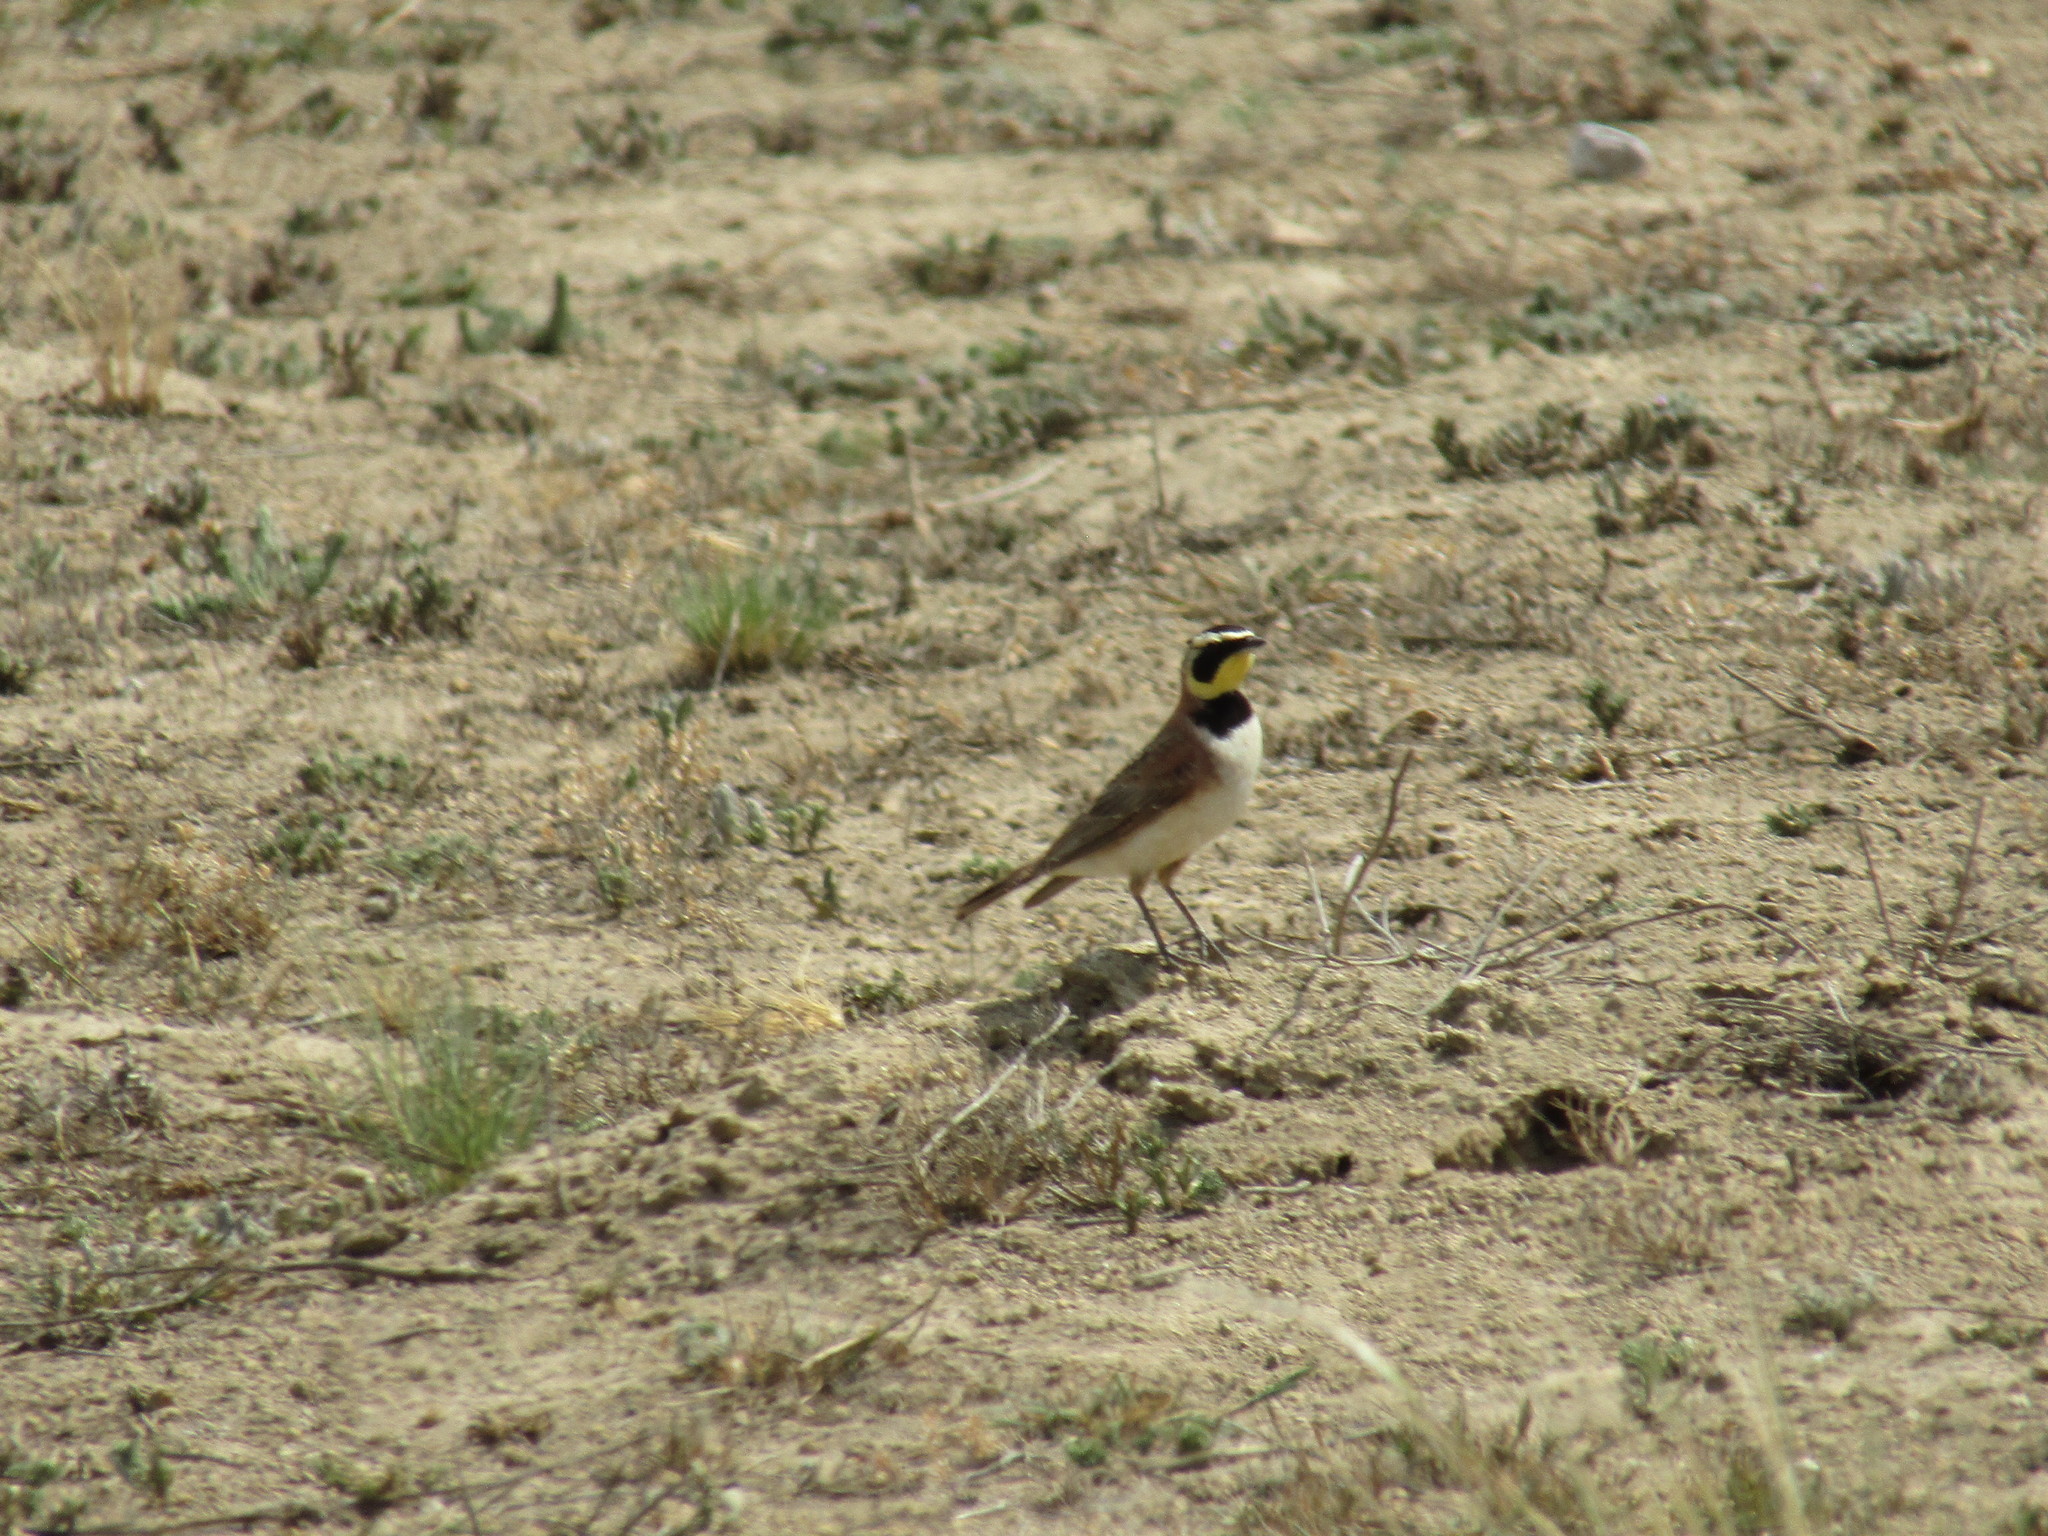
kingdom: Animalia
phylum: Chordata
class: Aves
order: Passeriformes
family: Alaudidae
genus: Eremophila
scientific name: Eremophila alpestris
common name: Horned lark
